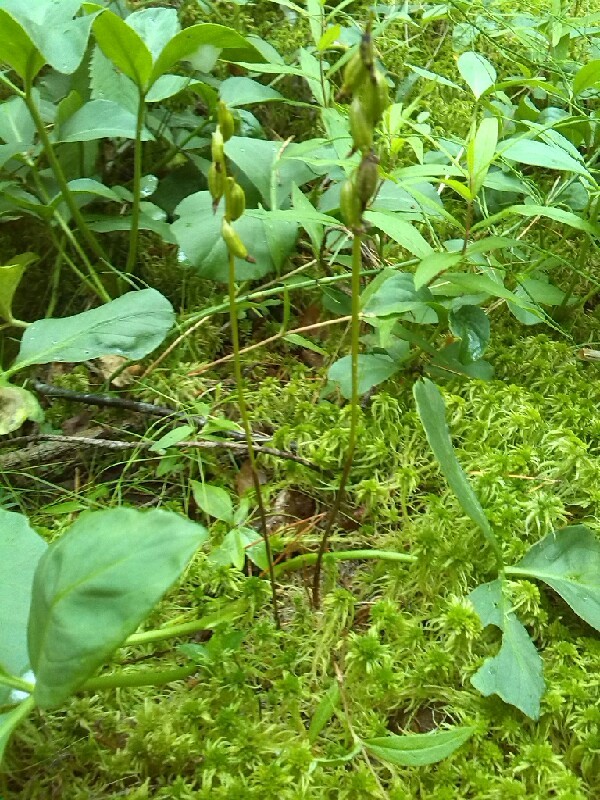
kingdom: Plantae
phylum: Tracheophyta
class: Liliopsida
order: Asparagales
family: Orchidaceae
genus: Corallorhiza
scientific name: Corallorhiza trifida
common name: Yellow coralroot
